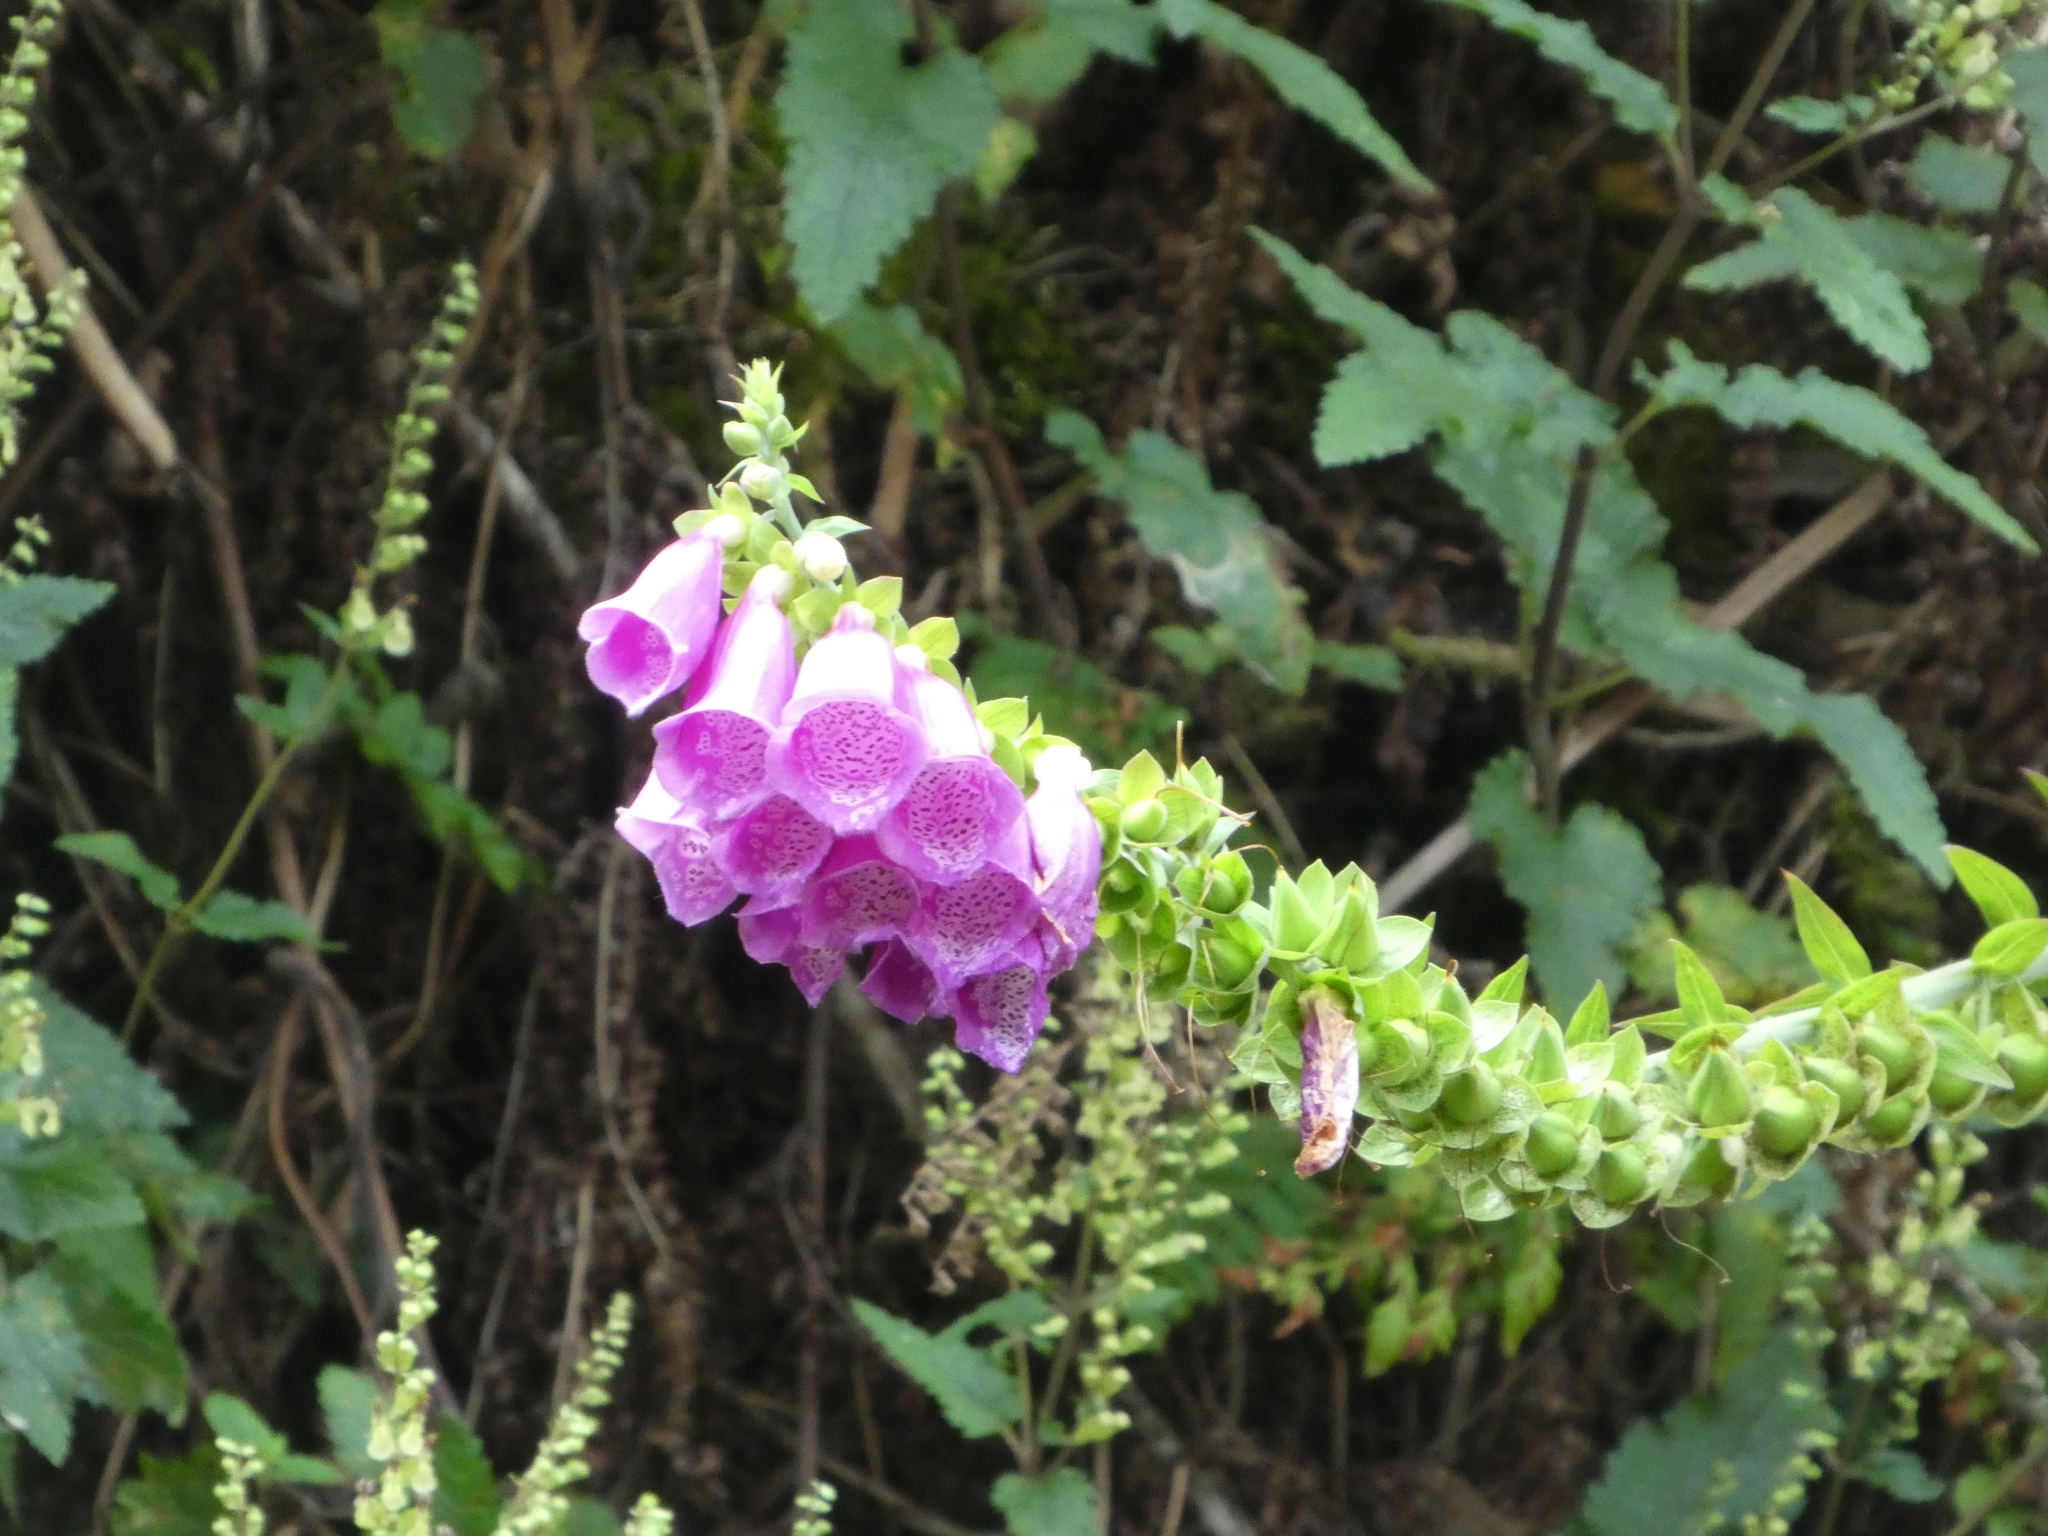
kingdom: Plantae
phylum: Tracheophyta
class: Magnoliopsida
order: Lamiales
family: Plantaginaceae
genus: Digitalis
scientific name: Digitalis purpurea
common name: Foxglove
